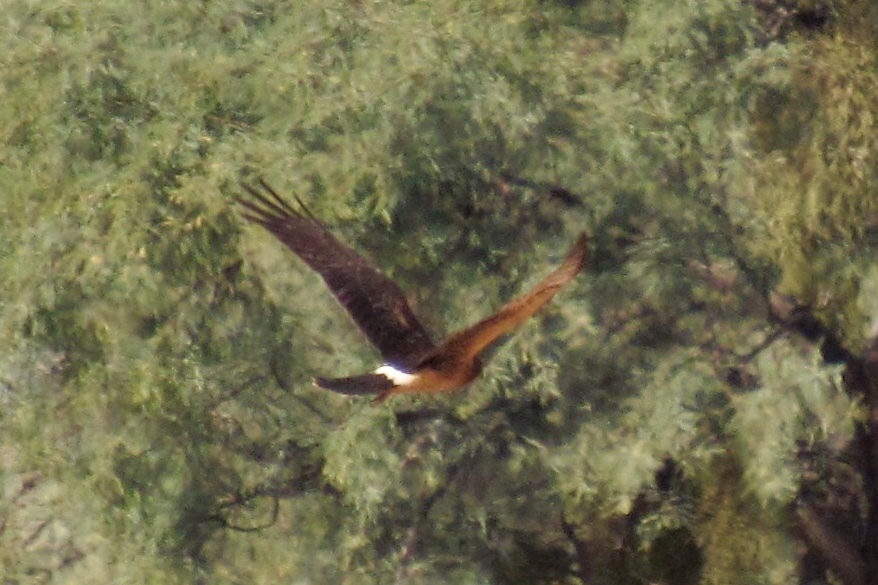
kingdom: Animalia
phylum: Chordata
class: Aves
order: Accipitriformes
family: Accipitridae
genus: Circus
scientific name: Circus cyaneus
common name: Hen harrier
